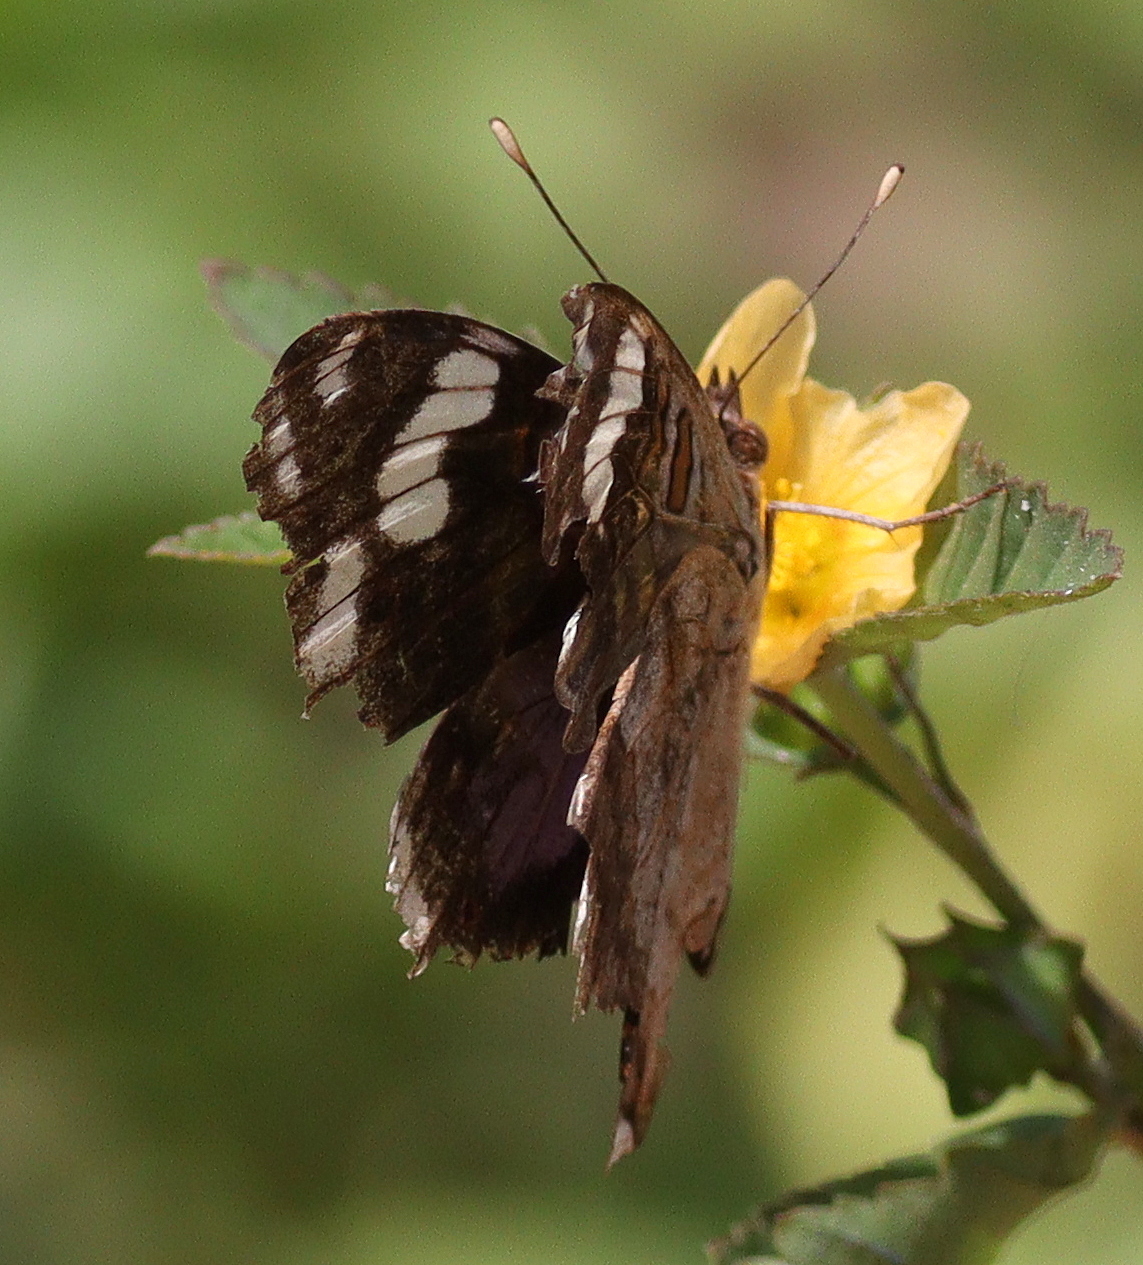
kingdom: Animalia
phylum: Arthropoda
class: Insecta
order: Lepidoptera
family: Nymphalidae
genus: Junonia
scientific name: Junonia oenone
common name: Dark blue pansy
